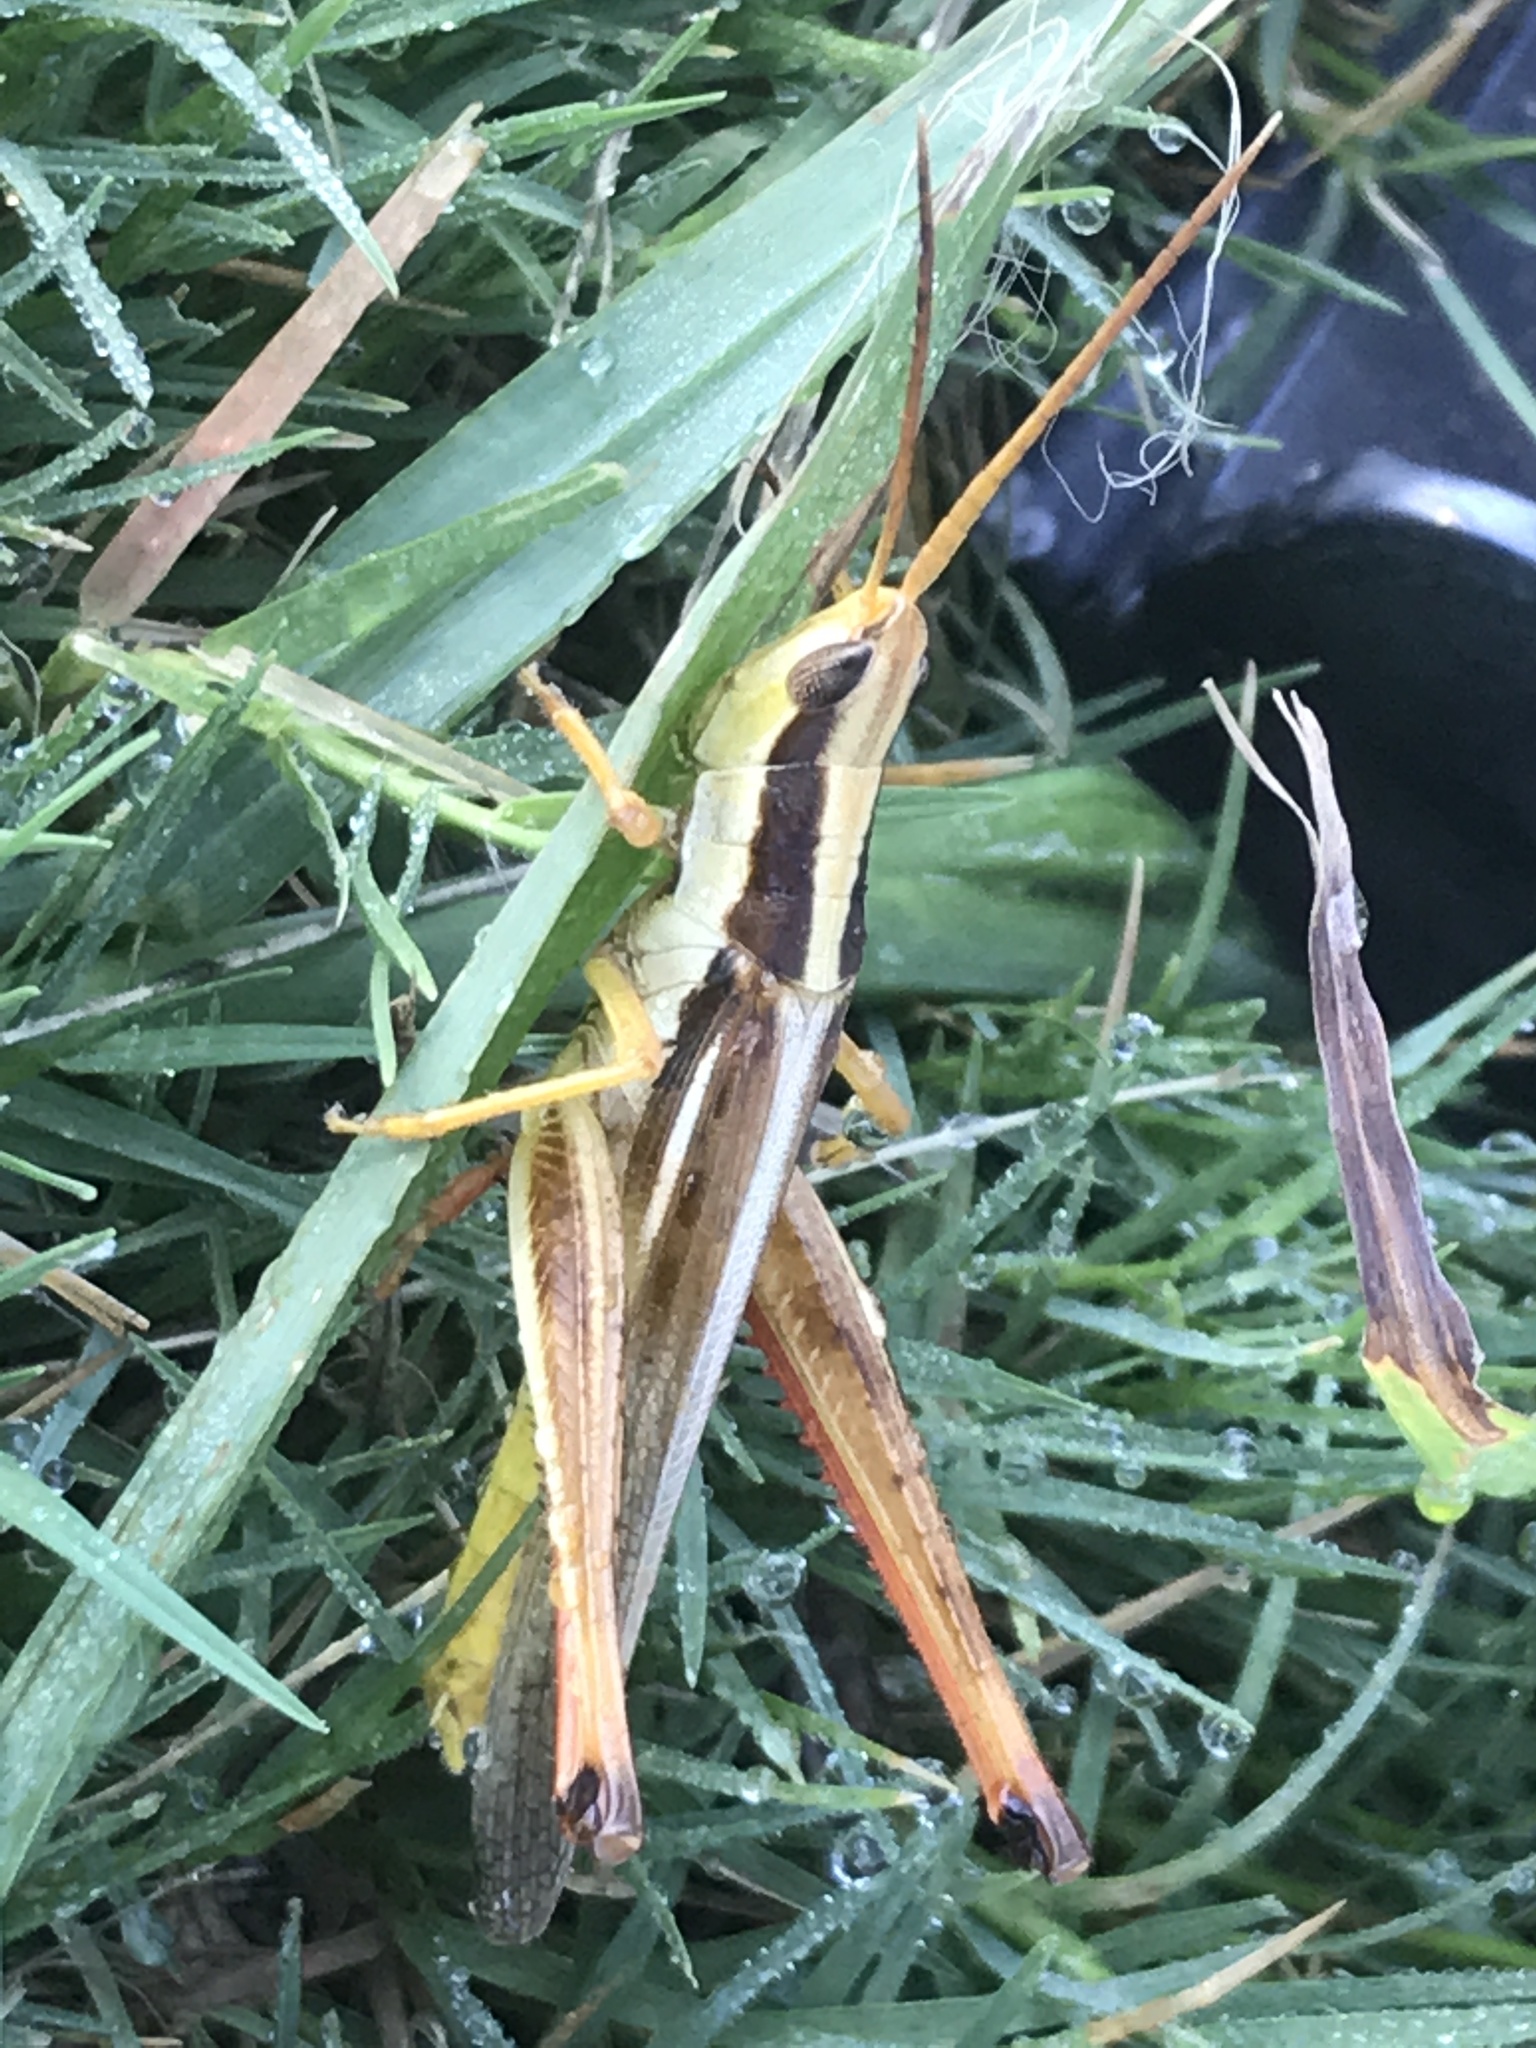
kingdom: Animalia
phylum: Arthropoda
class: Insecta
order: Orthoptera
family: Acrididae
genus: Mermiria
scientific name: Mermiria bivittata
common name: Two-striped mermiria grasshopper
